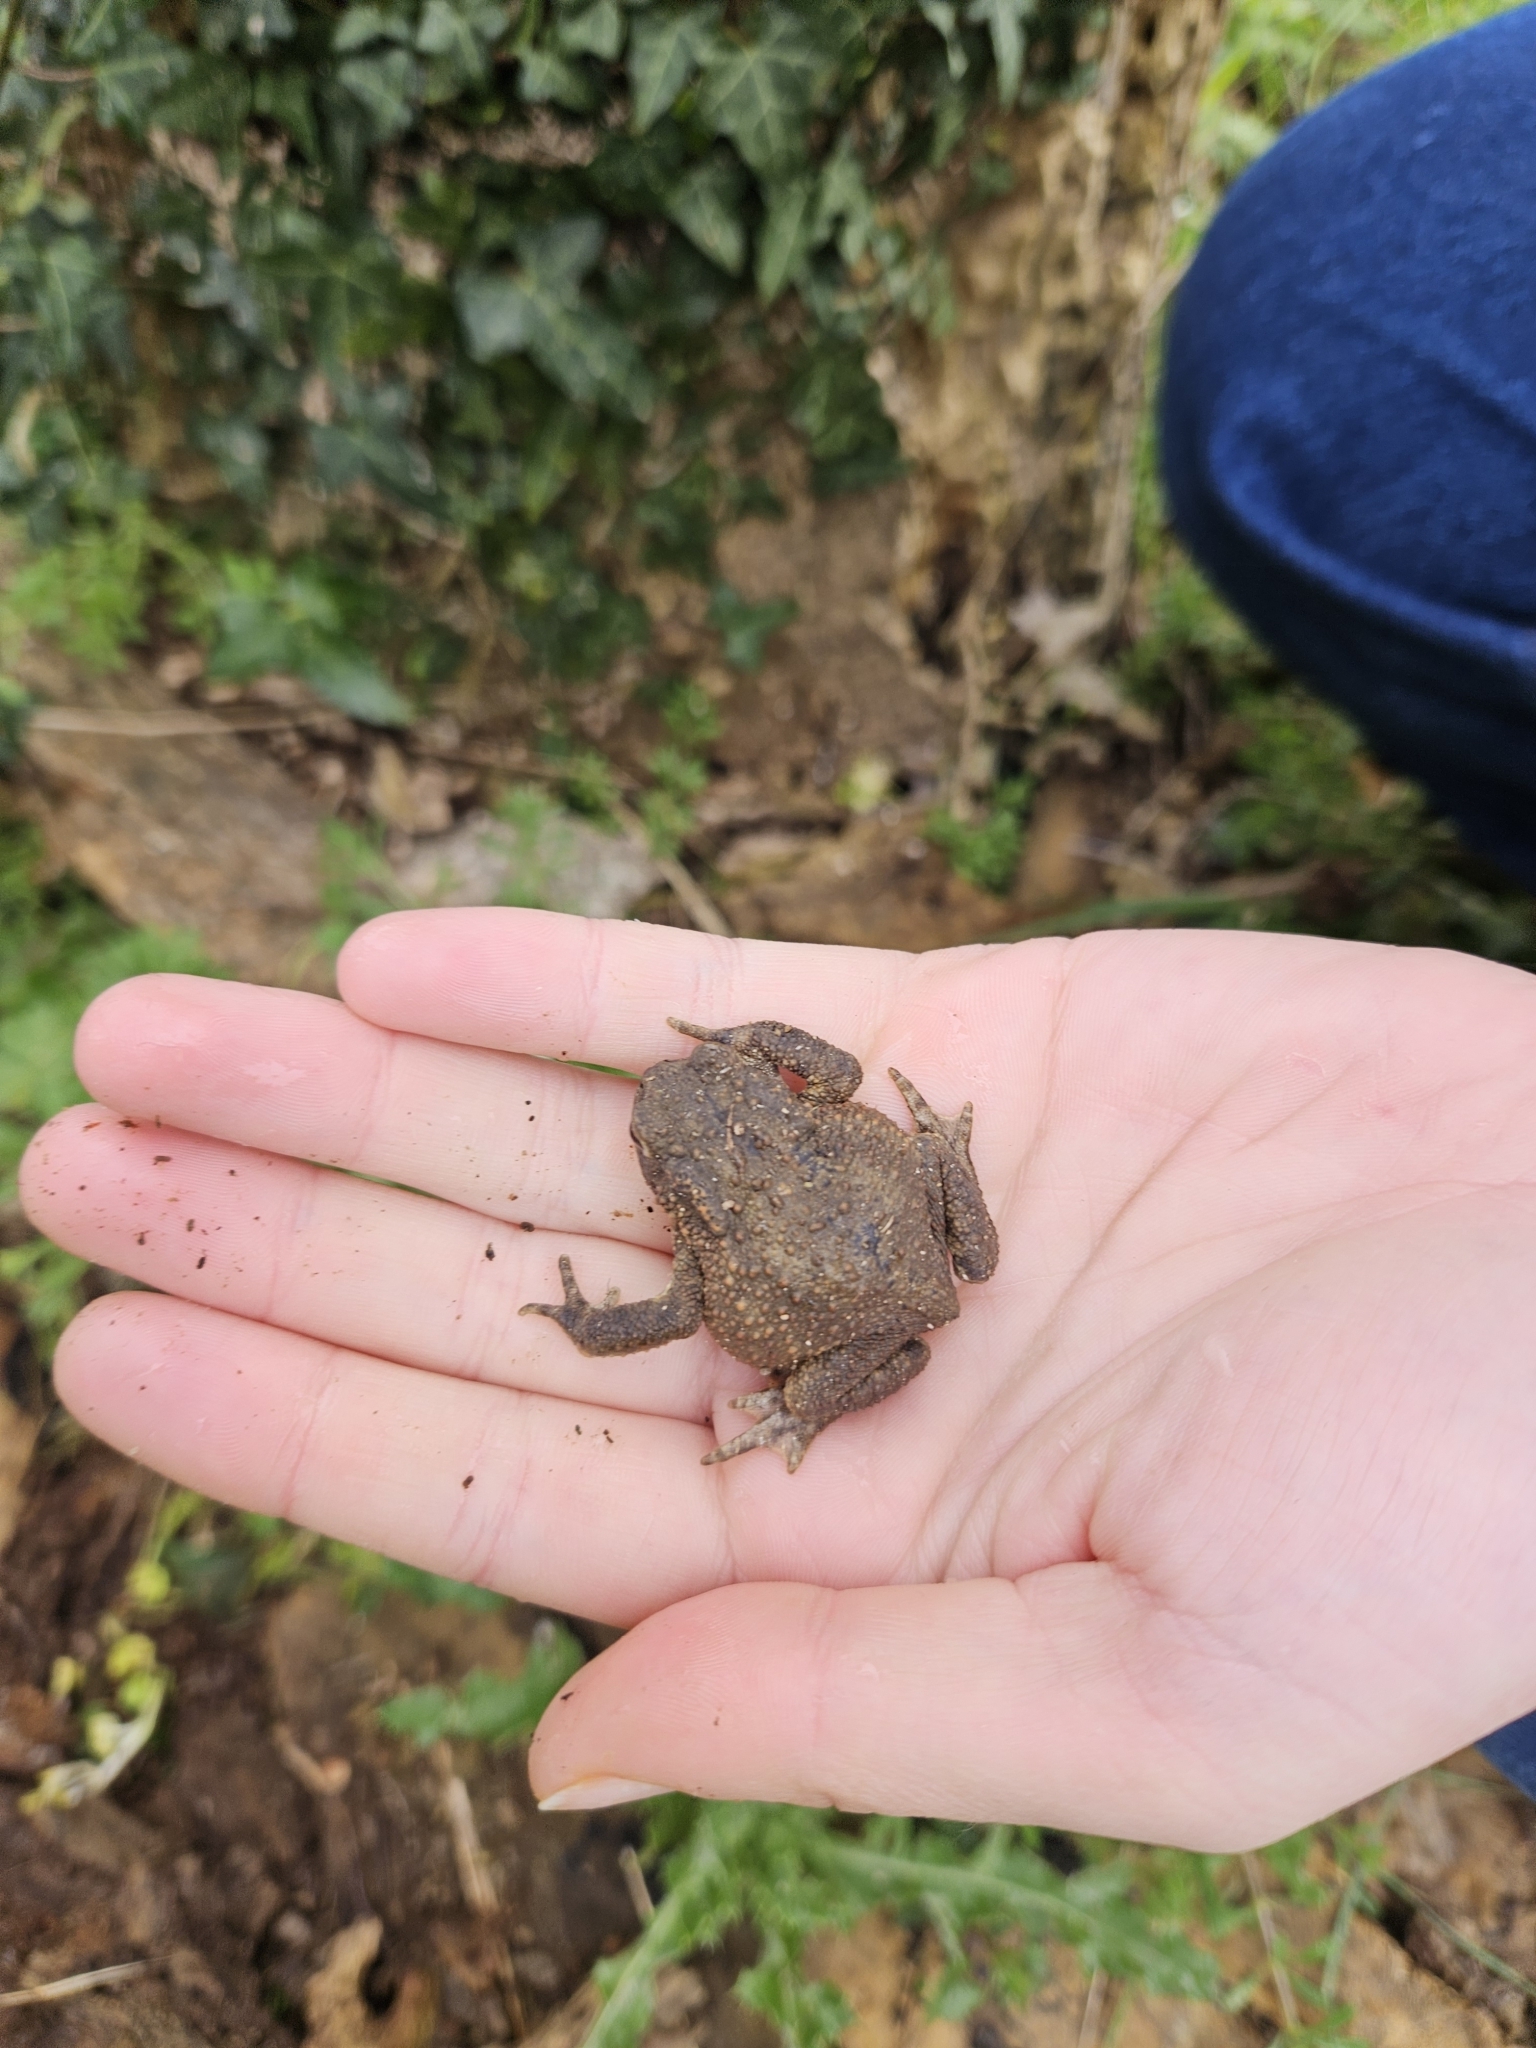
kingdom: Animalia
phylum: Chordata
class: Amphibia
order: Anura
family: Bufonidae
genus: Bufo
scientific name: Bufo bufo
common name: Common toad
